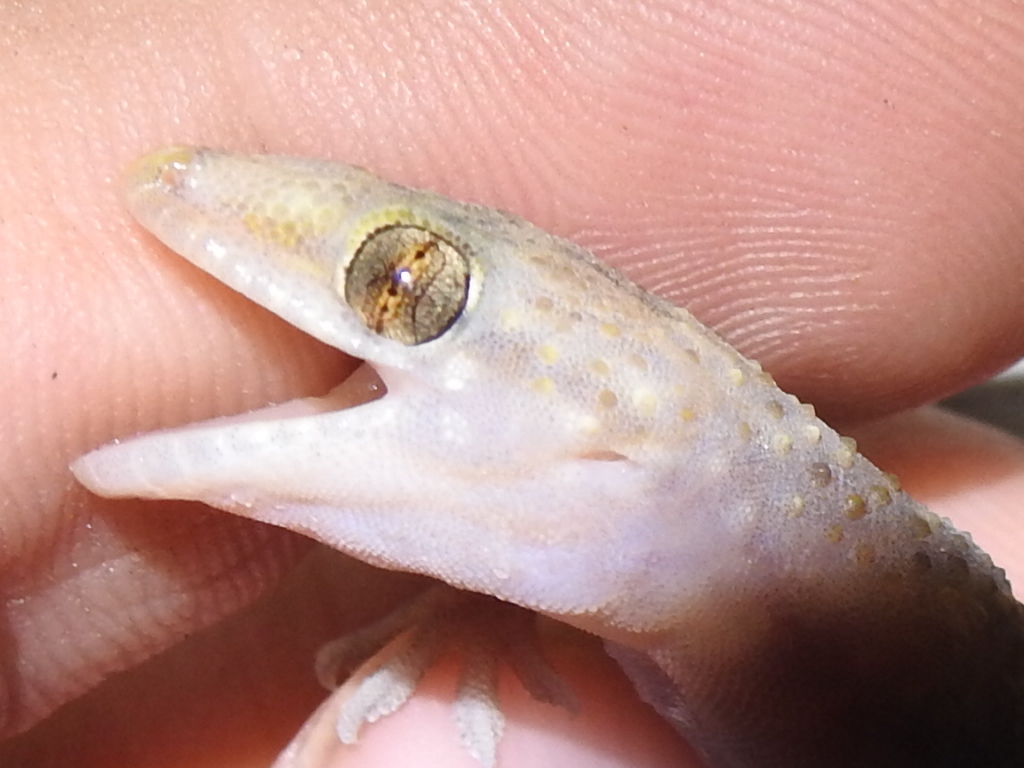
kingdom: Animalia
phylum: Chordata
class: Squamata
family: Gekkonidae
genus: Hemidactylus
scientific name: Hemidactylus turcicus
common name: Turkish gecko
